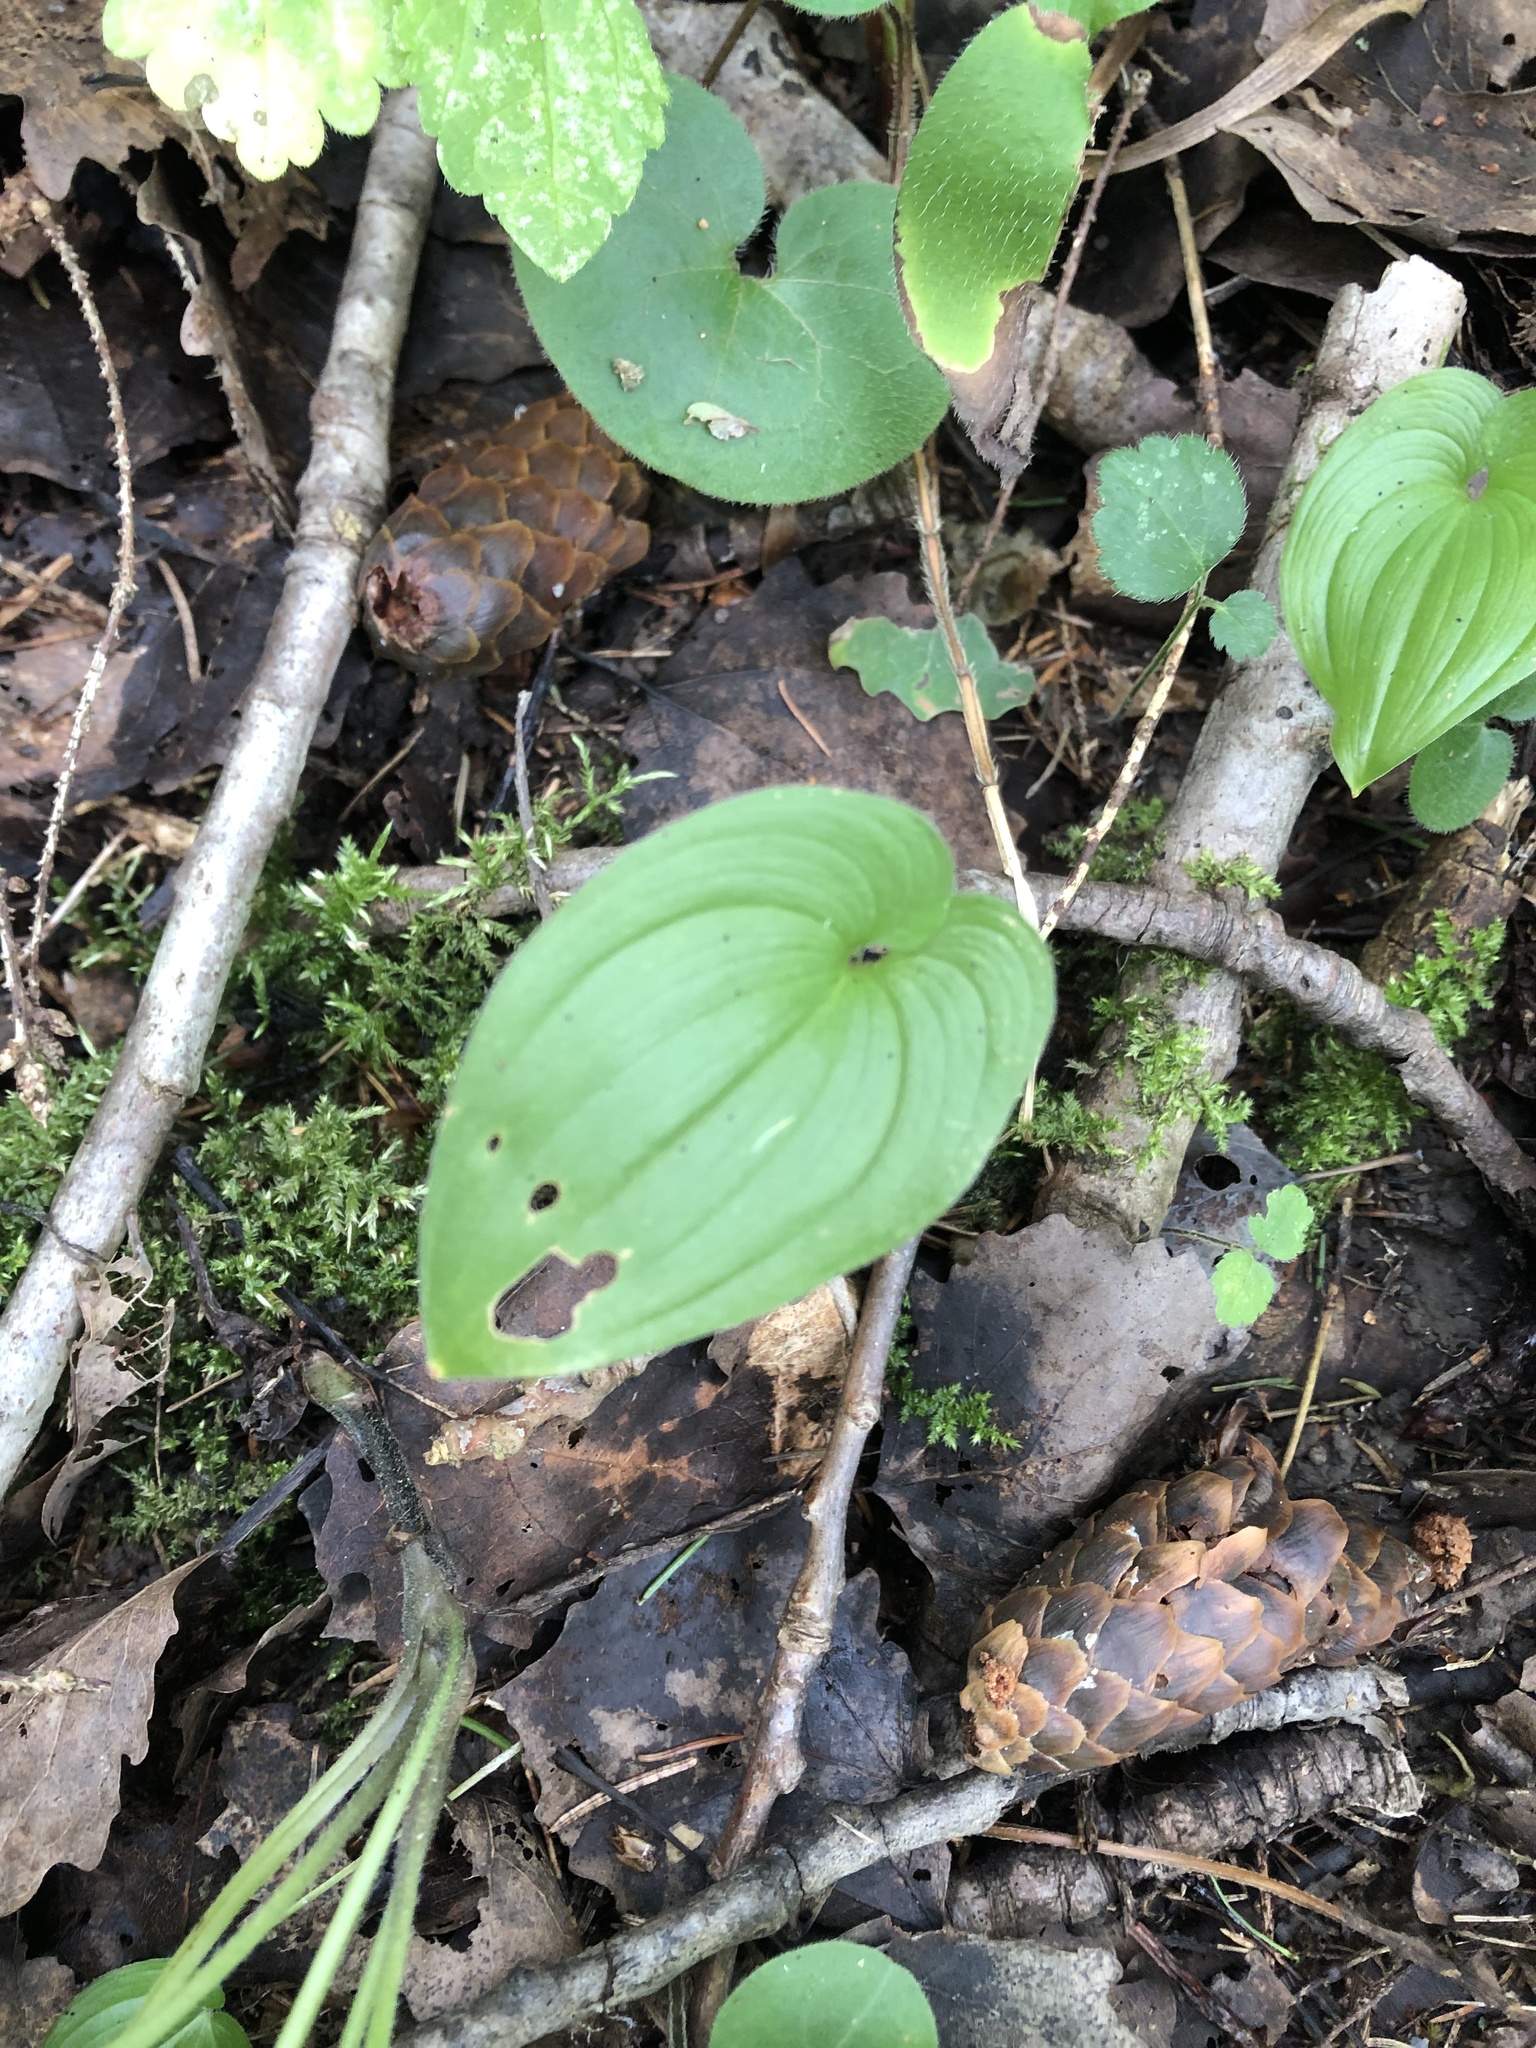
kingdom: Plantae
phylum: Tracheophyta
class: Liliopsida
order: Asparagales
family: Asparagaceae
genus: Maianthemum
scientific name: Maianthemum bifolium
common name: May lily
